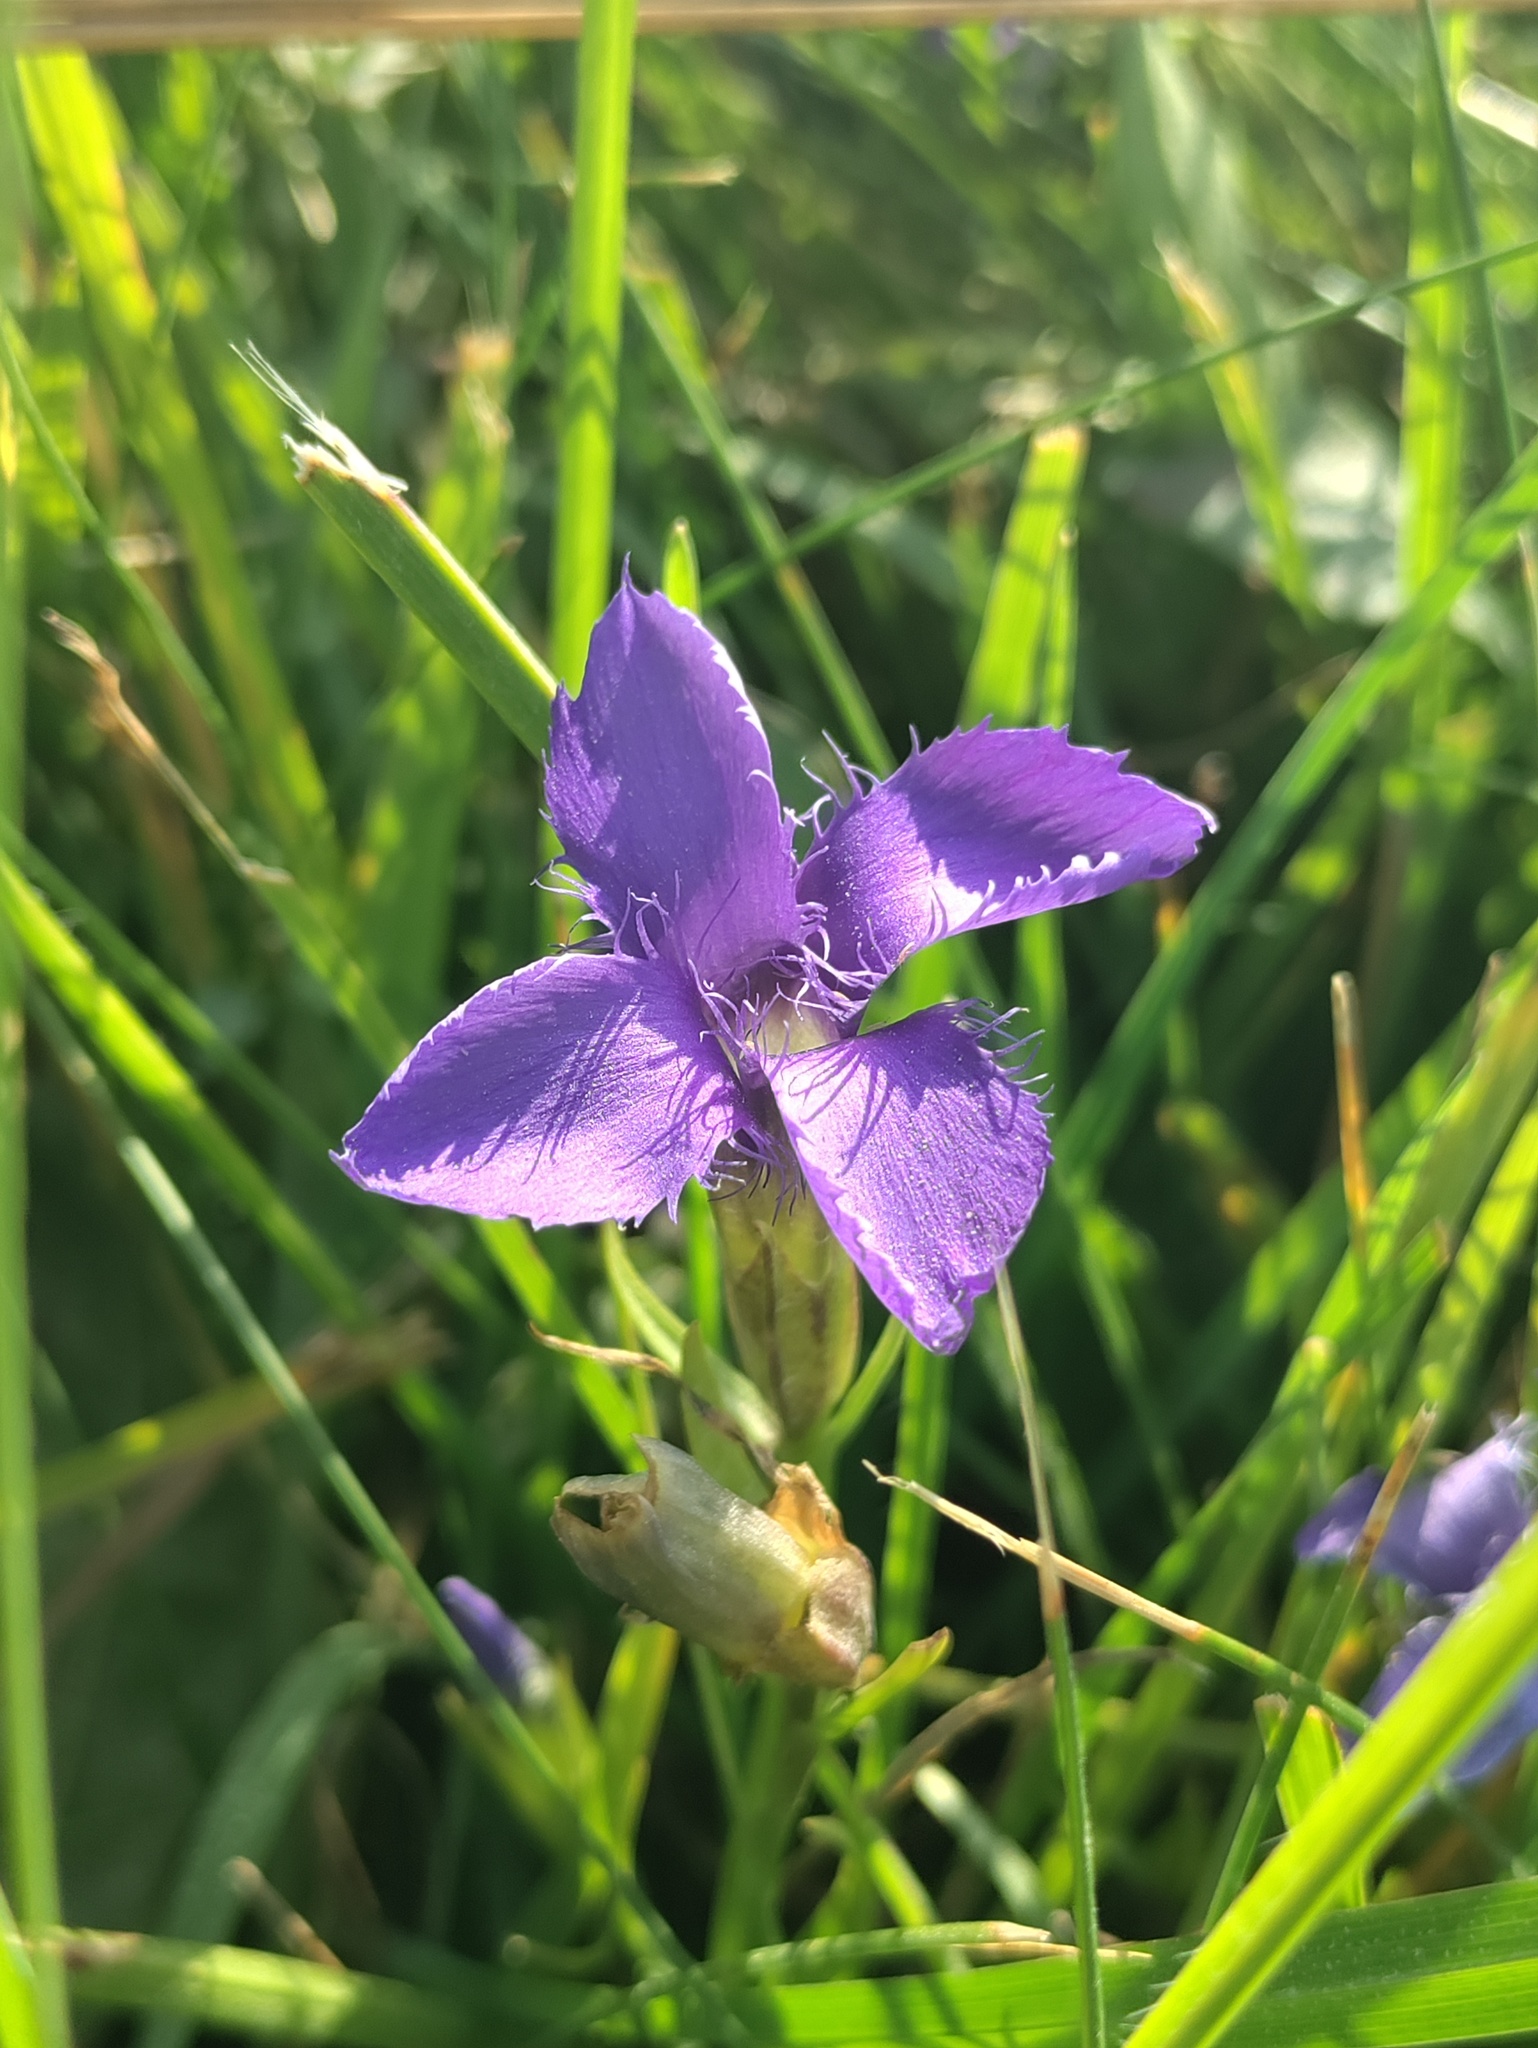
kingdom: Plantae
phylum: Tracheophyta
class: Magnoliopsida
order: Gentianales
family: Gentianaceae
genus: Gentianopsis
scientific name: Gentianopsis ciliata
